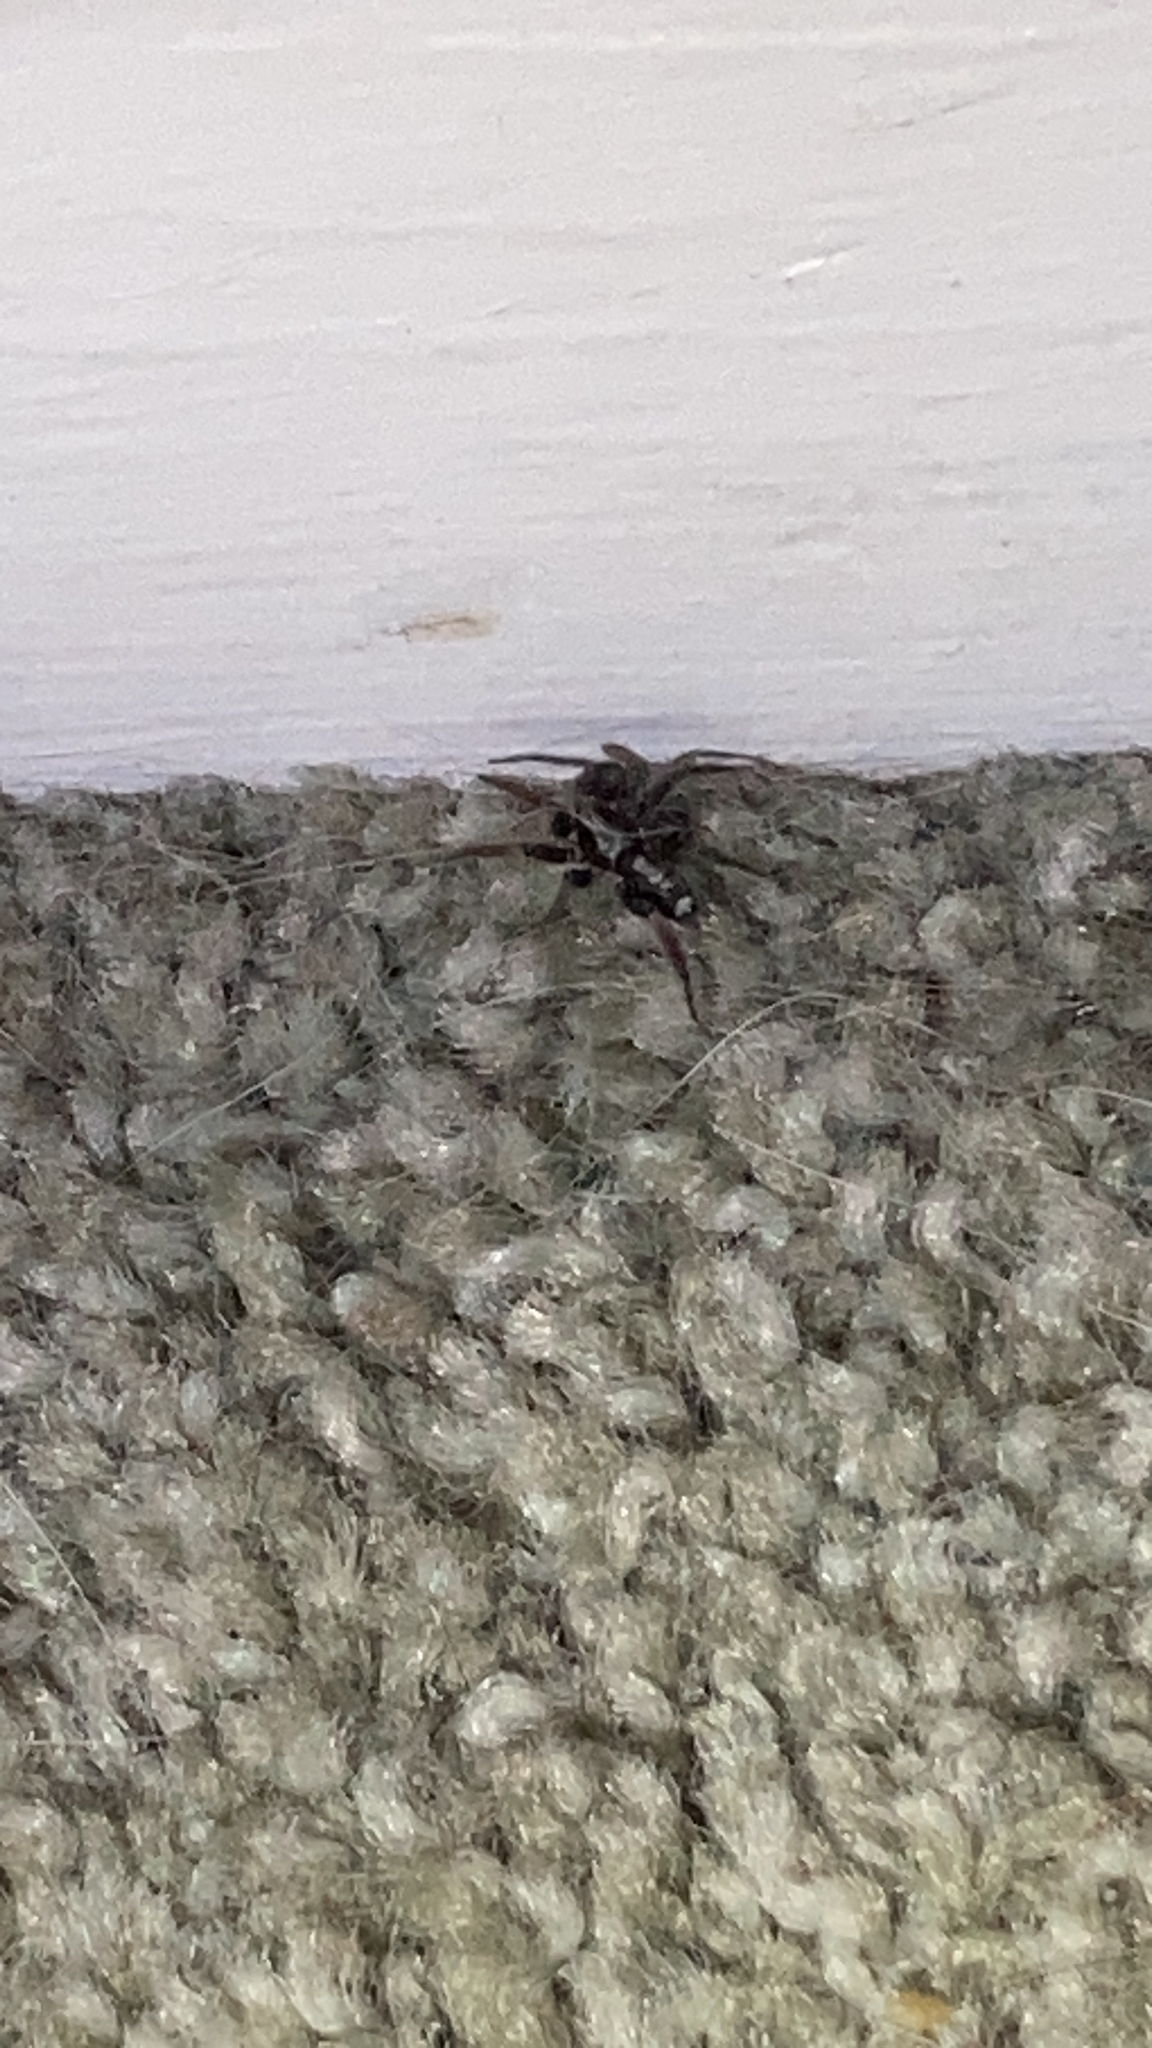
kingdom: Animalia
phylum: Arthropoda
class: Arachnida
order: Araneae
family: Gnaphosidae
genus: Herpyllus
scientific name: Herpyllus ecclesiasticus
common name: Eastern parson spider
